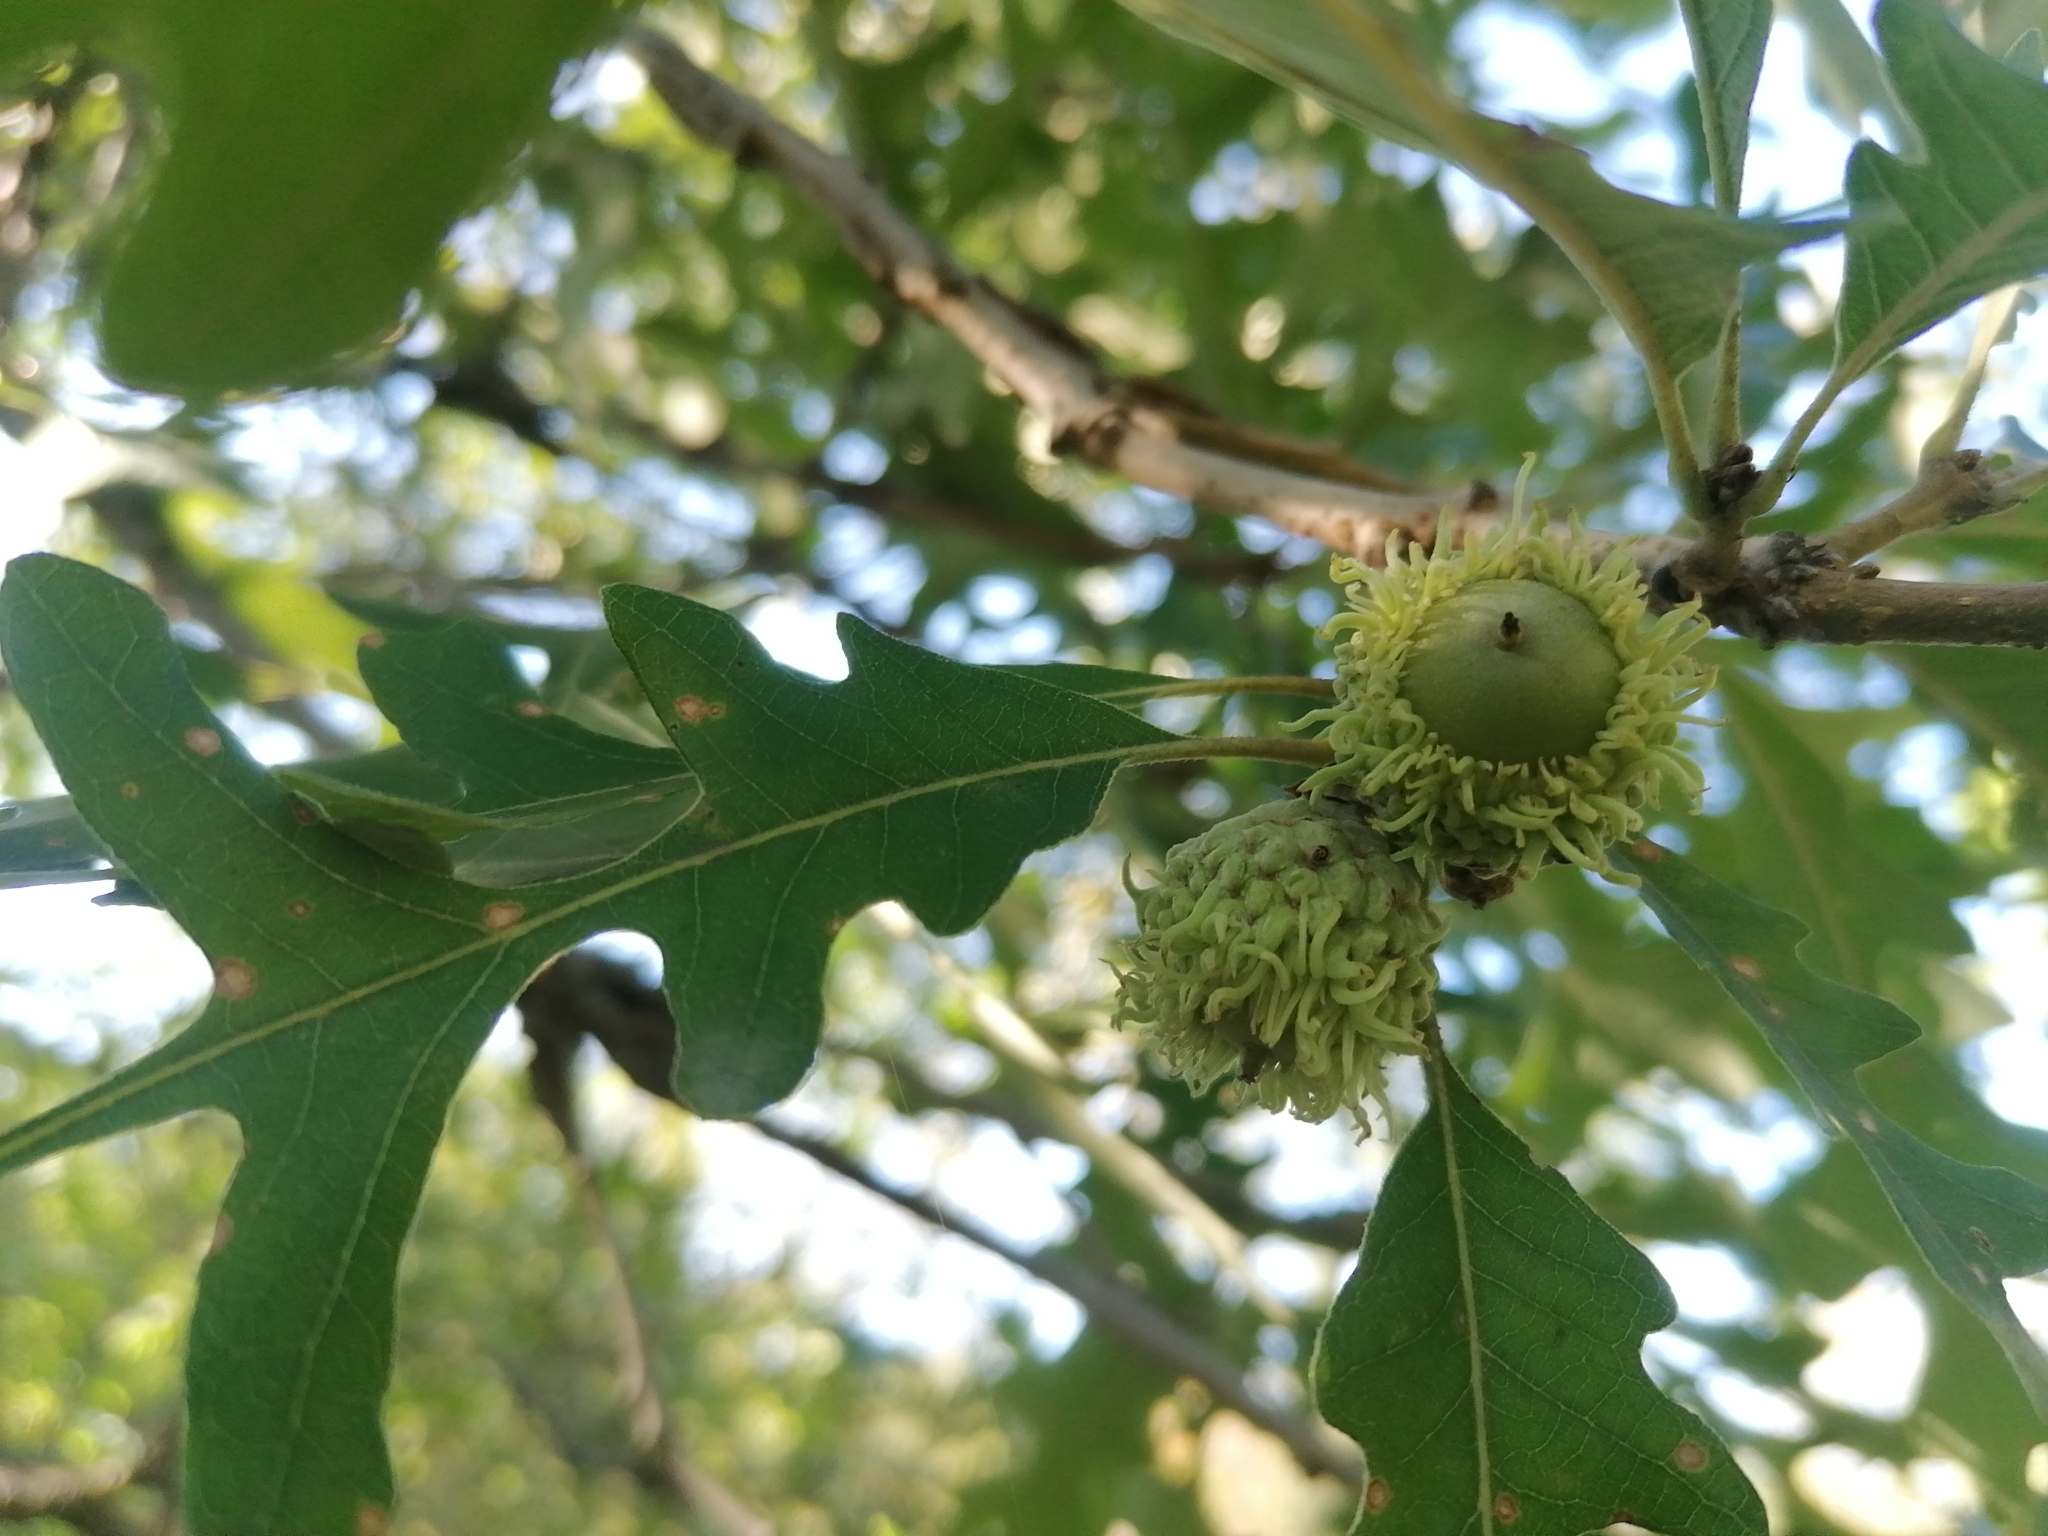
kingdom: Plantae
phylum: Tracheophyta
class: Magnoliopsida
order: Fagales
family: Fagaceae
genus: Quercus
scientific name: Quercus macrocarpa
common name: Bur oak
